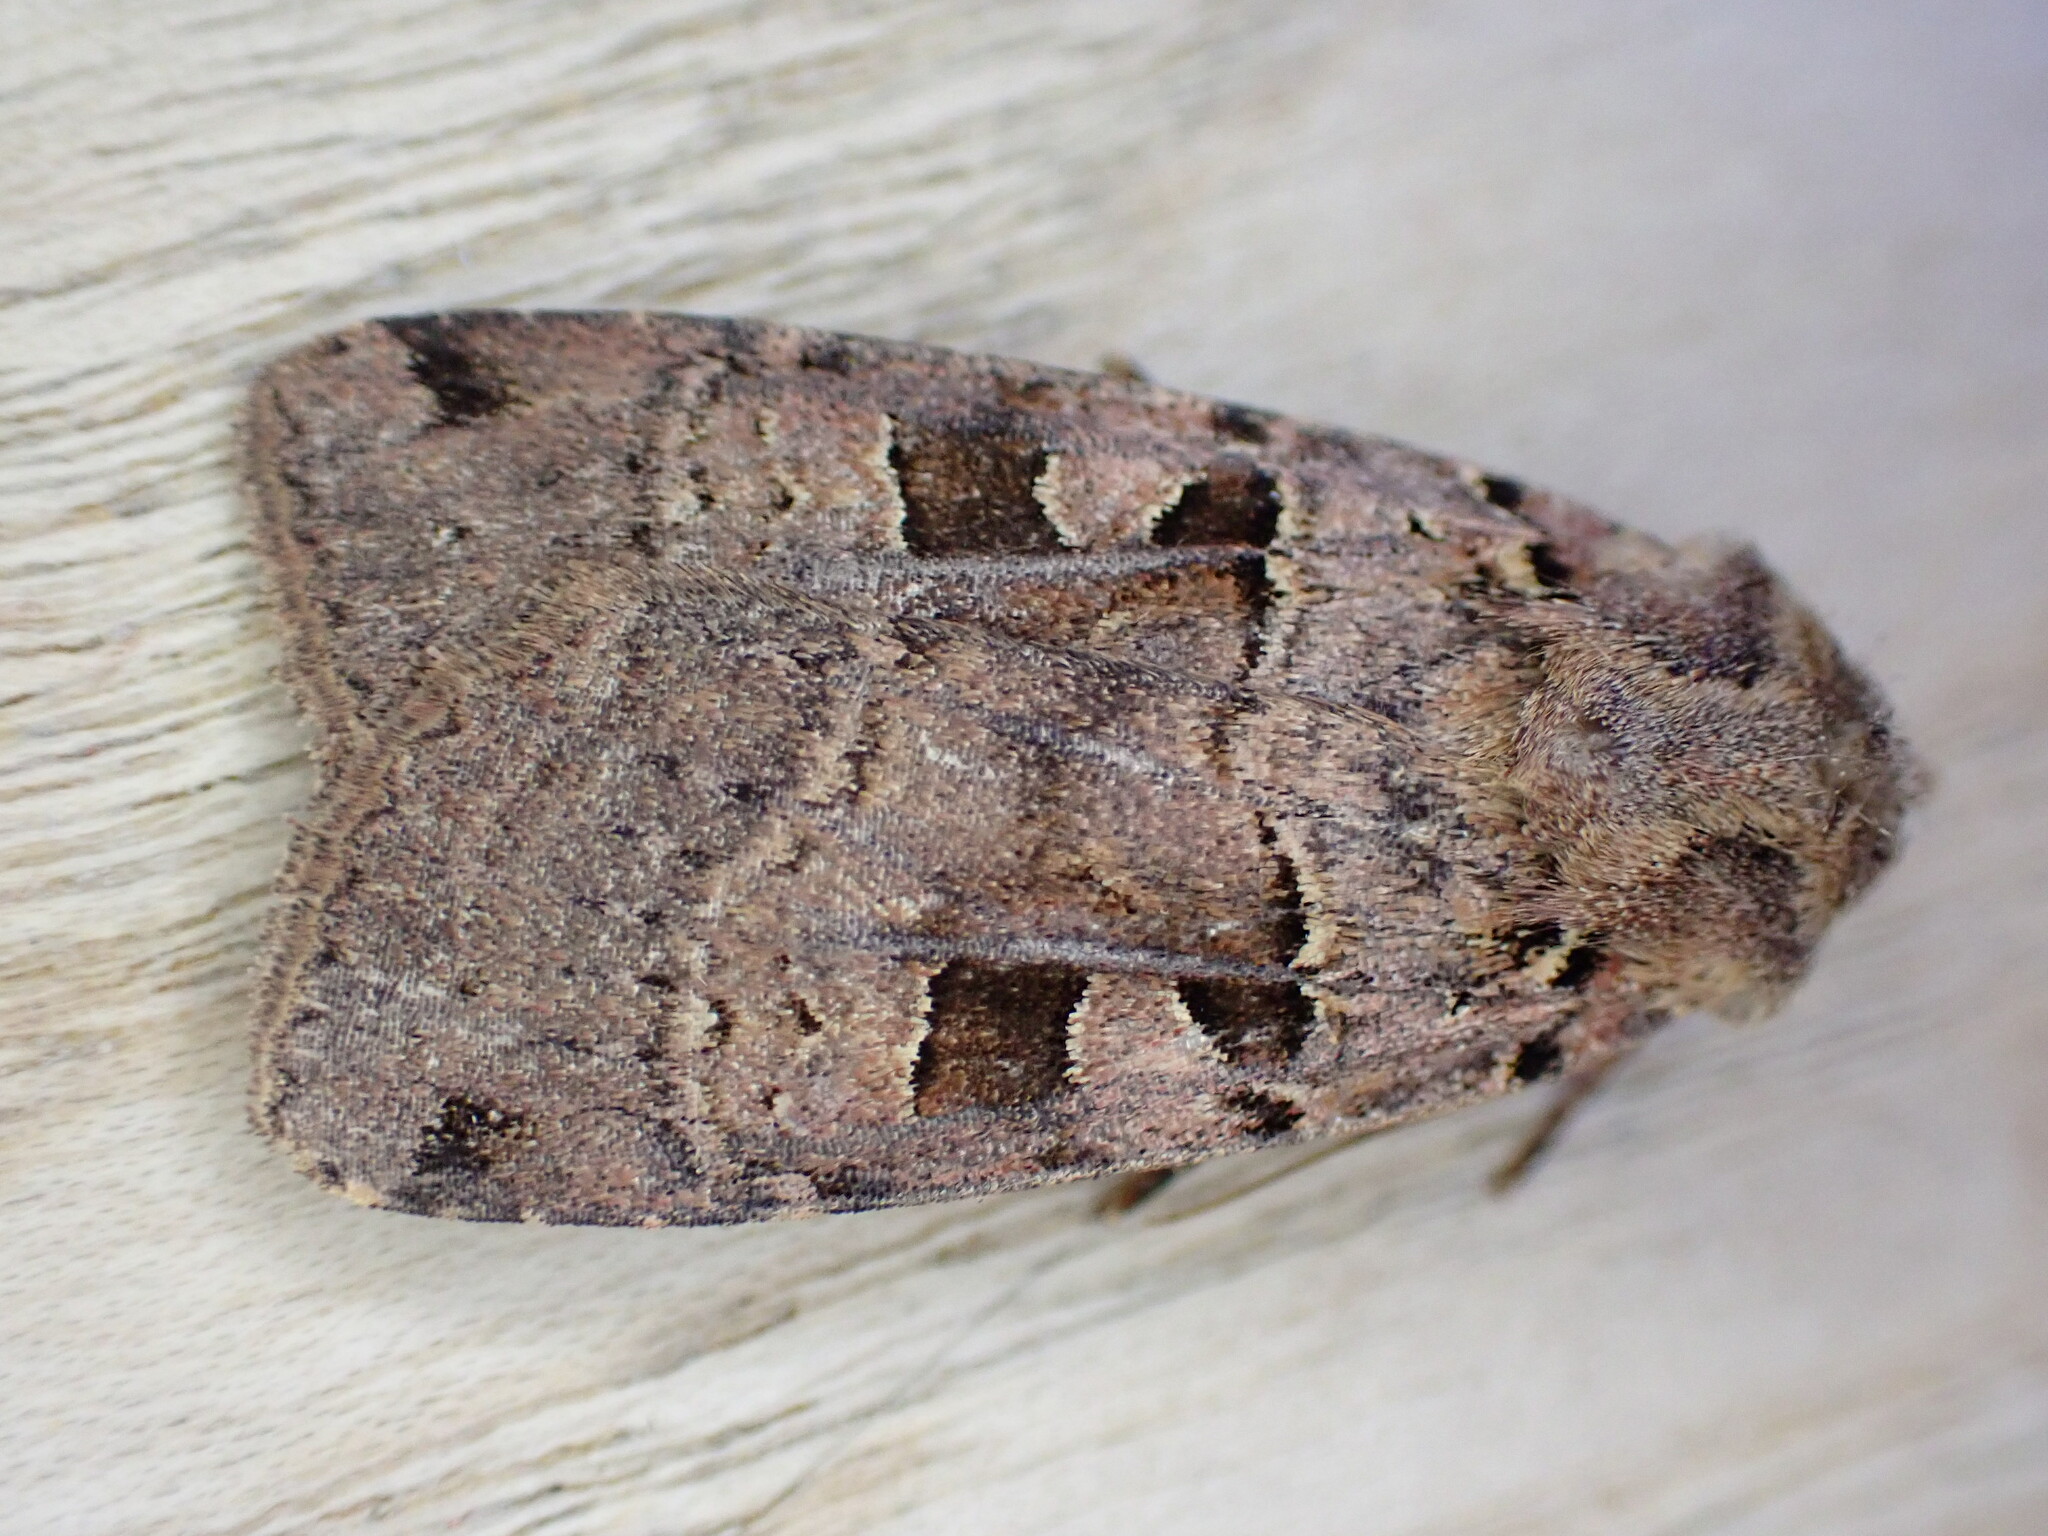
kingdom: Animalia
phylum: Arthropoda
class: Insecta
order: Lepidoptera
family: Noctuidae
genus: Xestia
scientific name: Xestia triangulum
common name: Double square-spot
